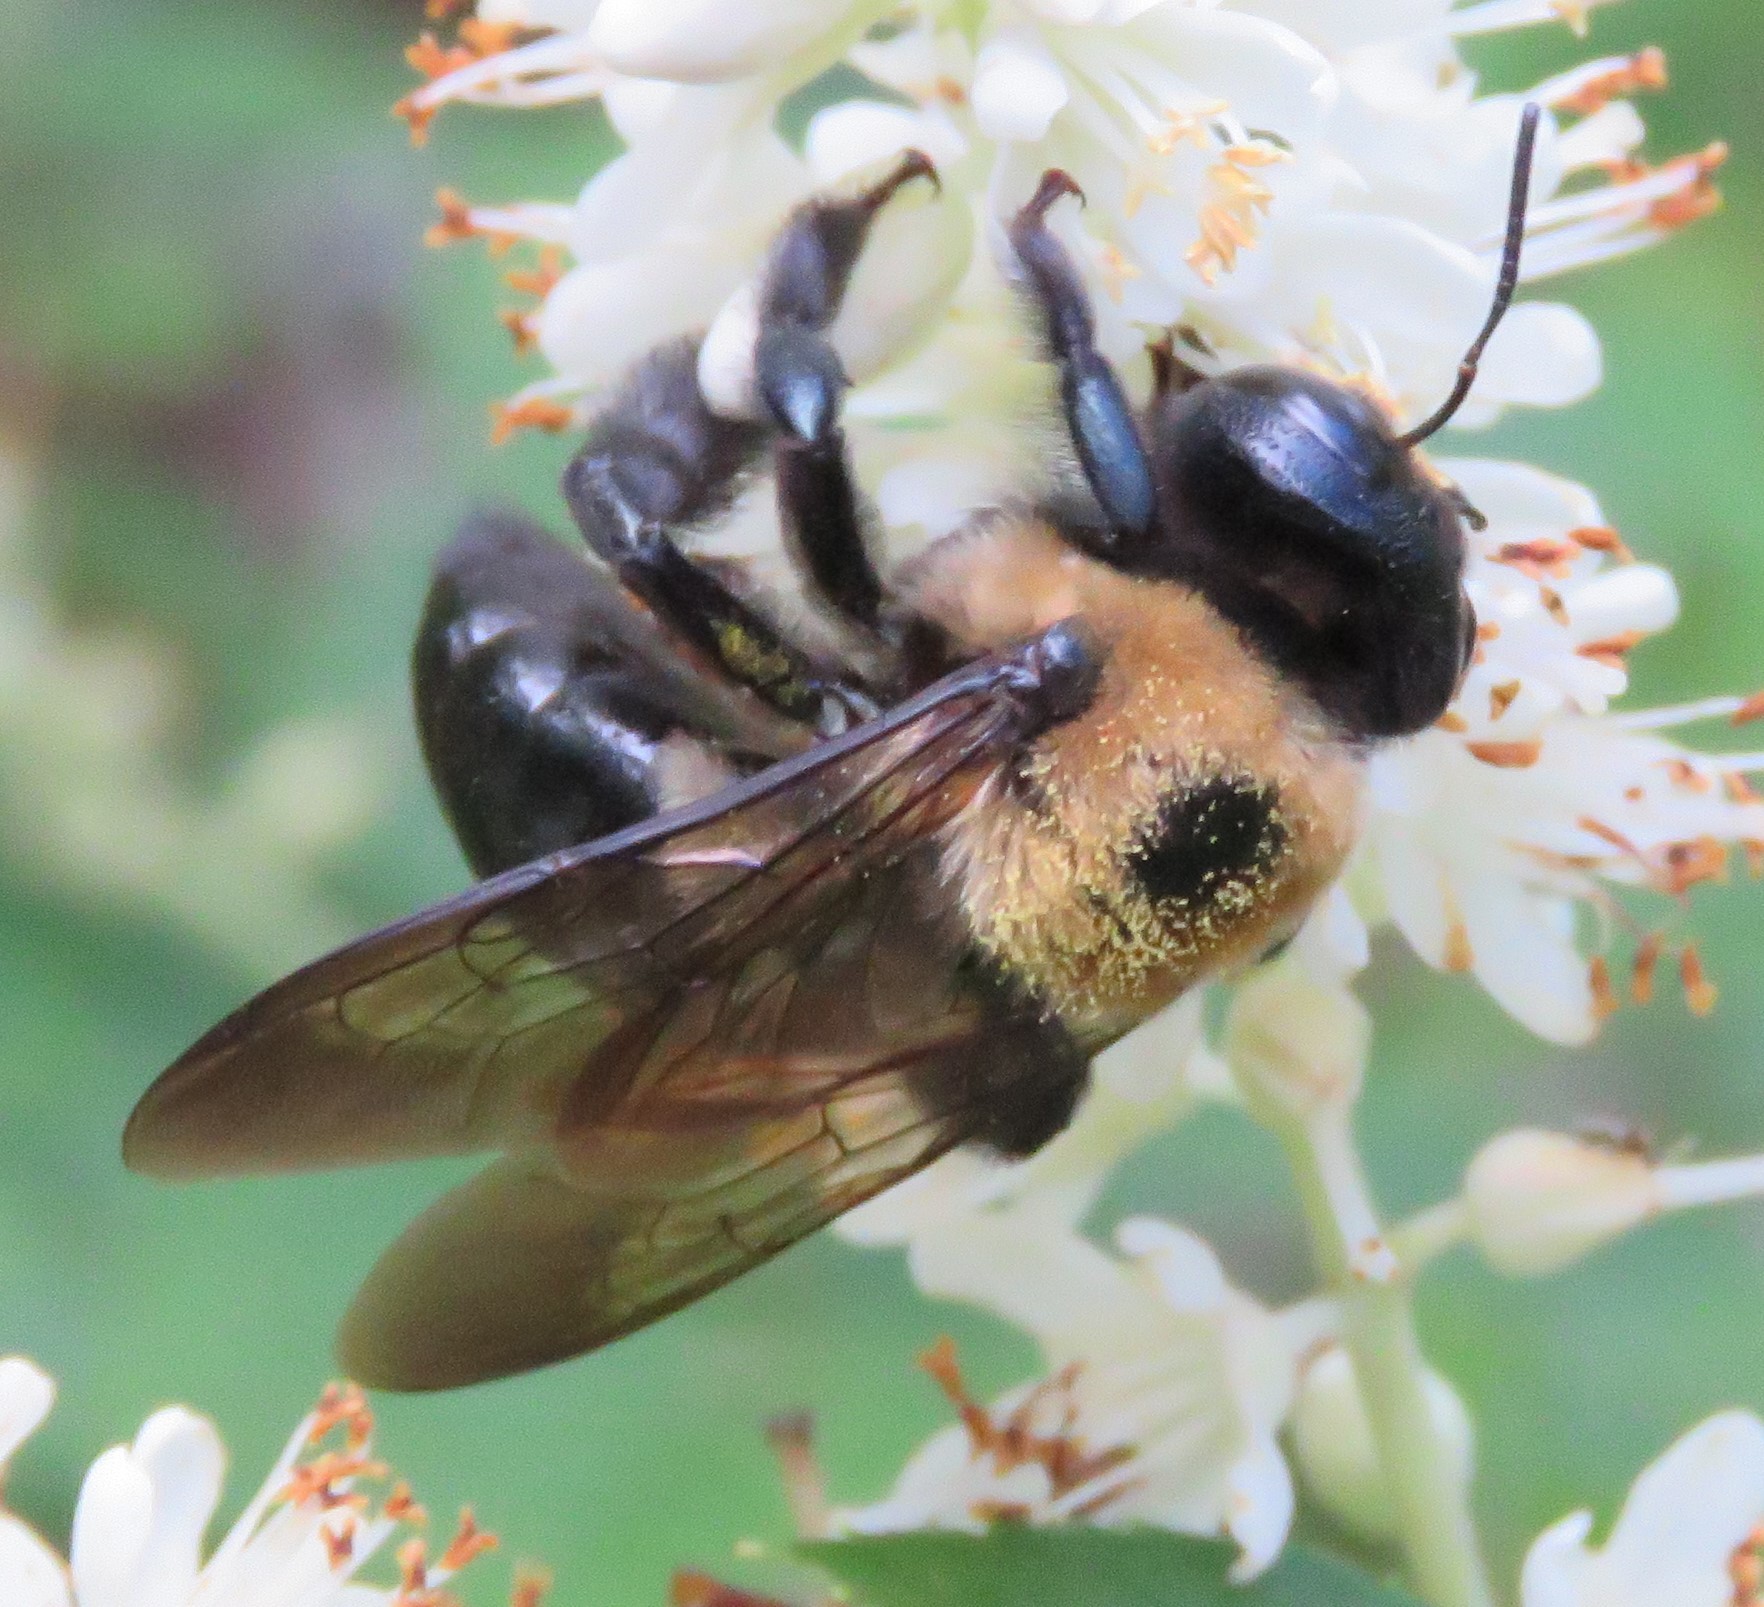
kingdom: Animalia
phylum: Arthropoda
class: Insecta
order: Hymenoptera
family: Apidae
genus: Xylocopa
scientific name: Xylocopa virginica
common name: Carpenter bee
